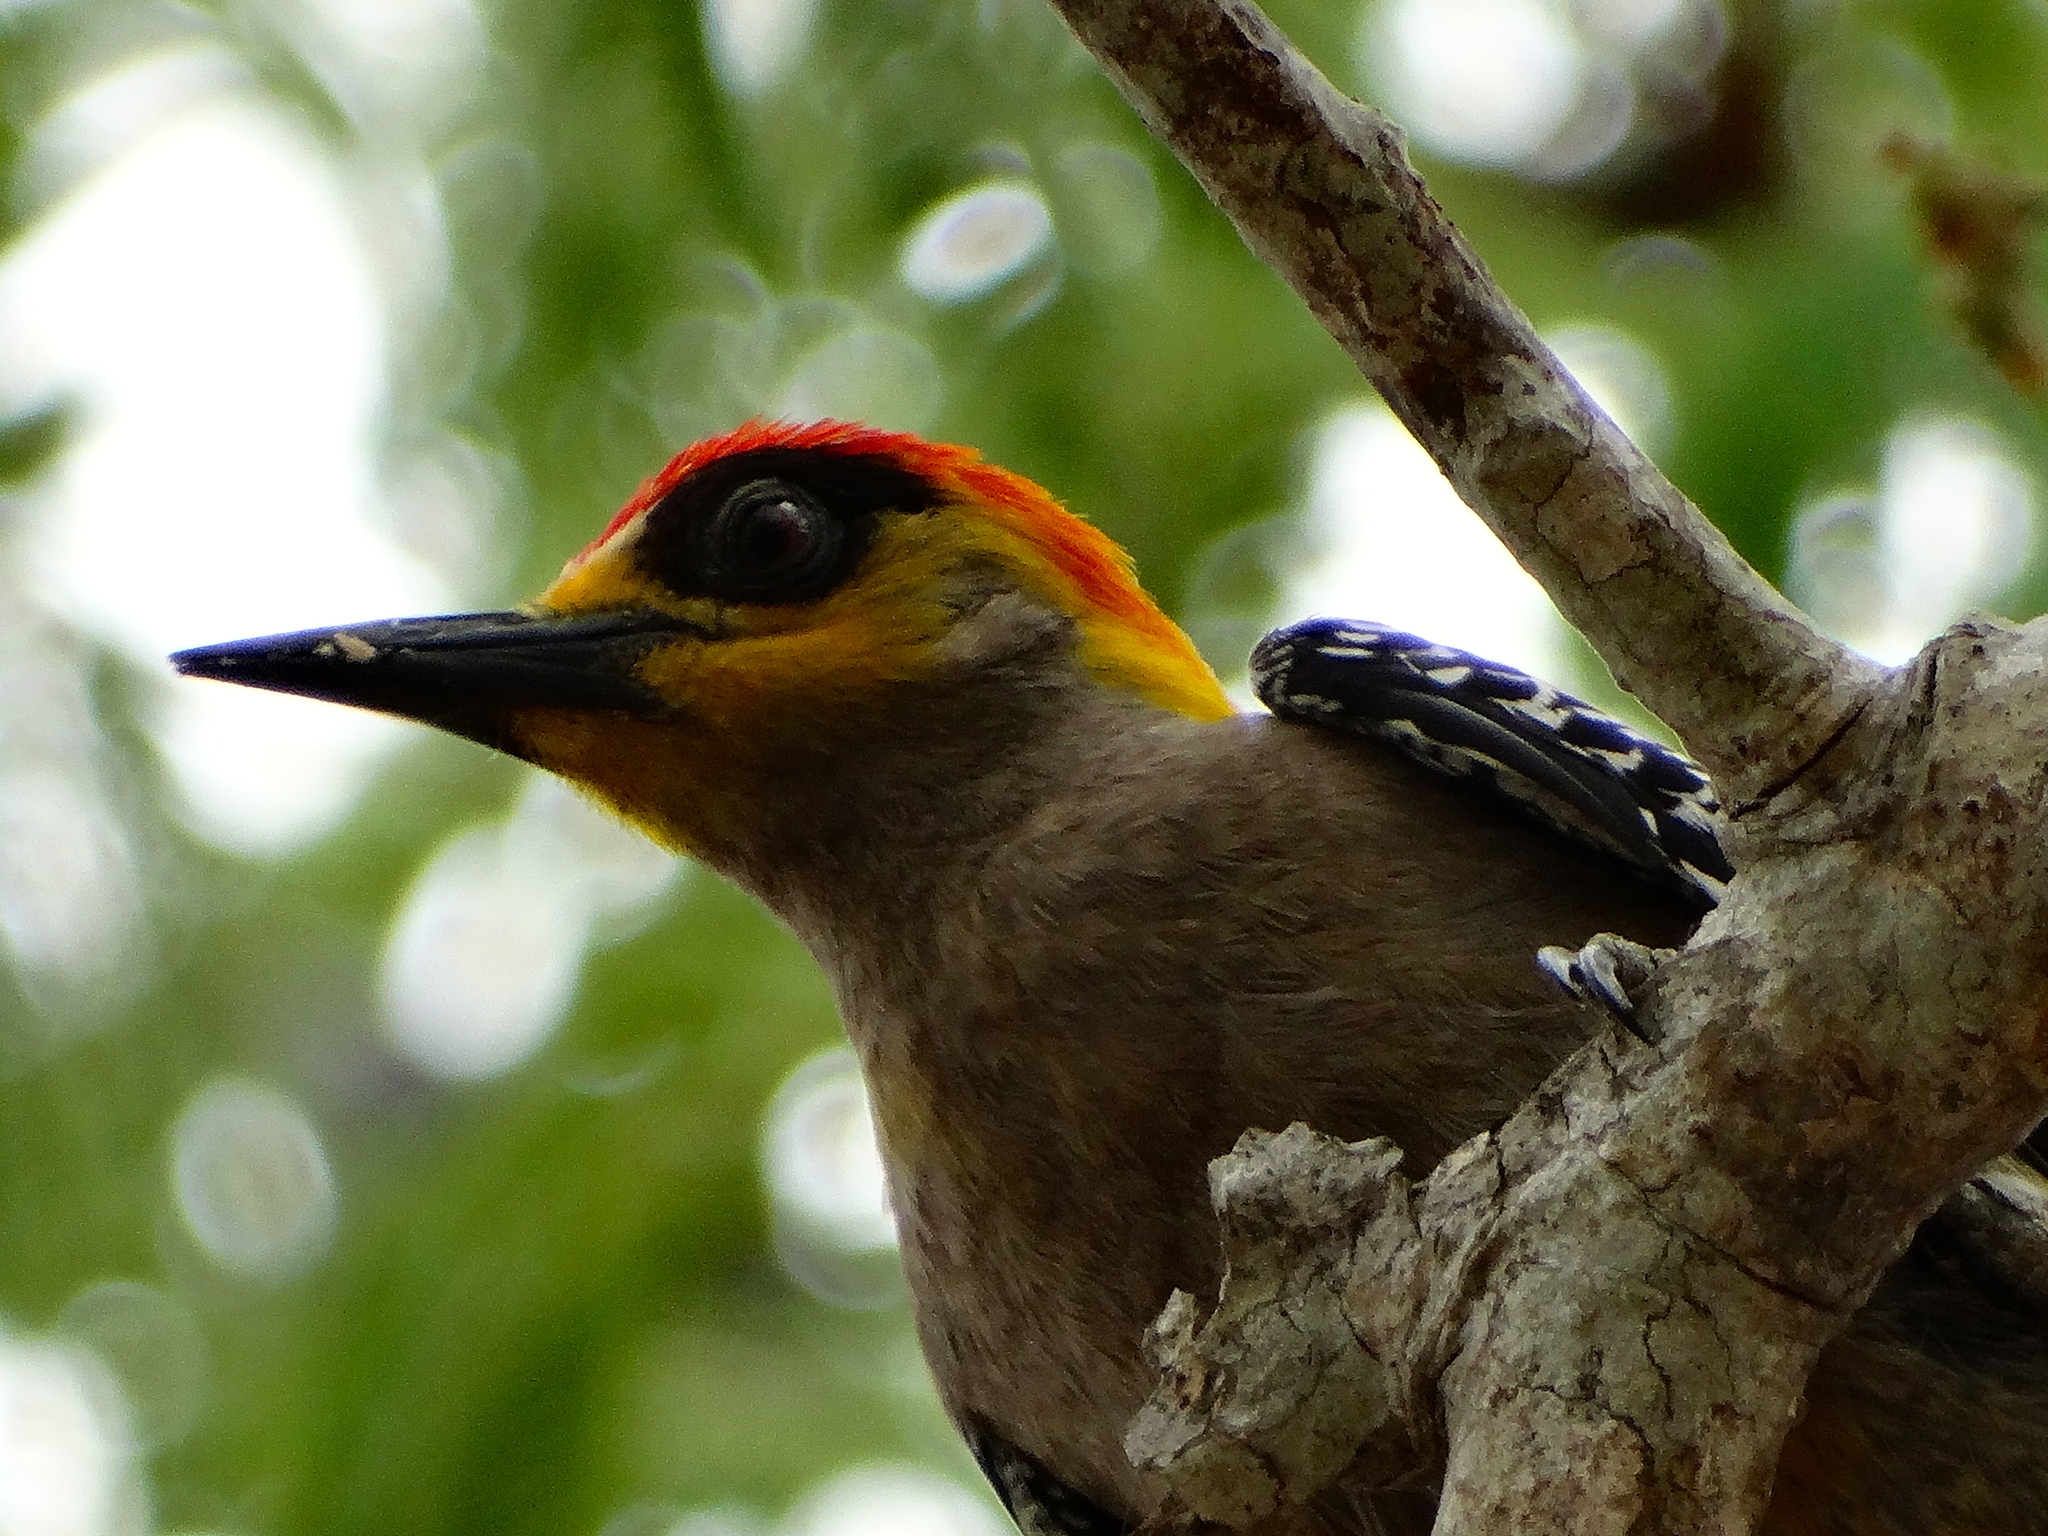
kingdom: Animalia
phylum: Chordata
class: Aves
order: Piciformes
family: Picidae
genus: Melanerpes
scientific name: Melanerpes chrysogenys
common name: Golden-cheeked woodpecker
